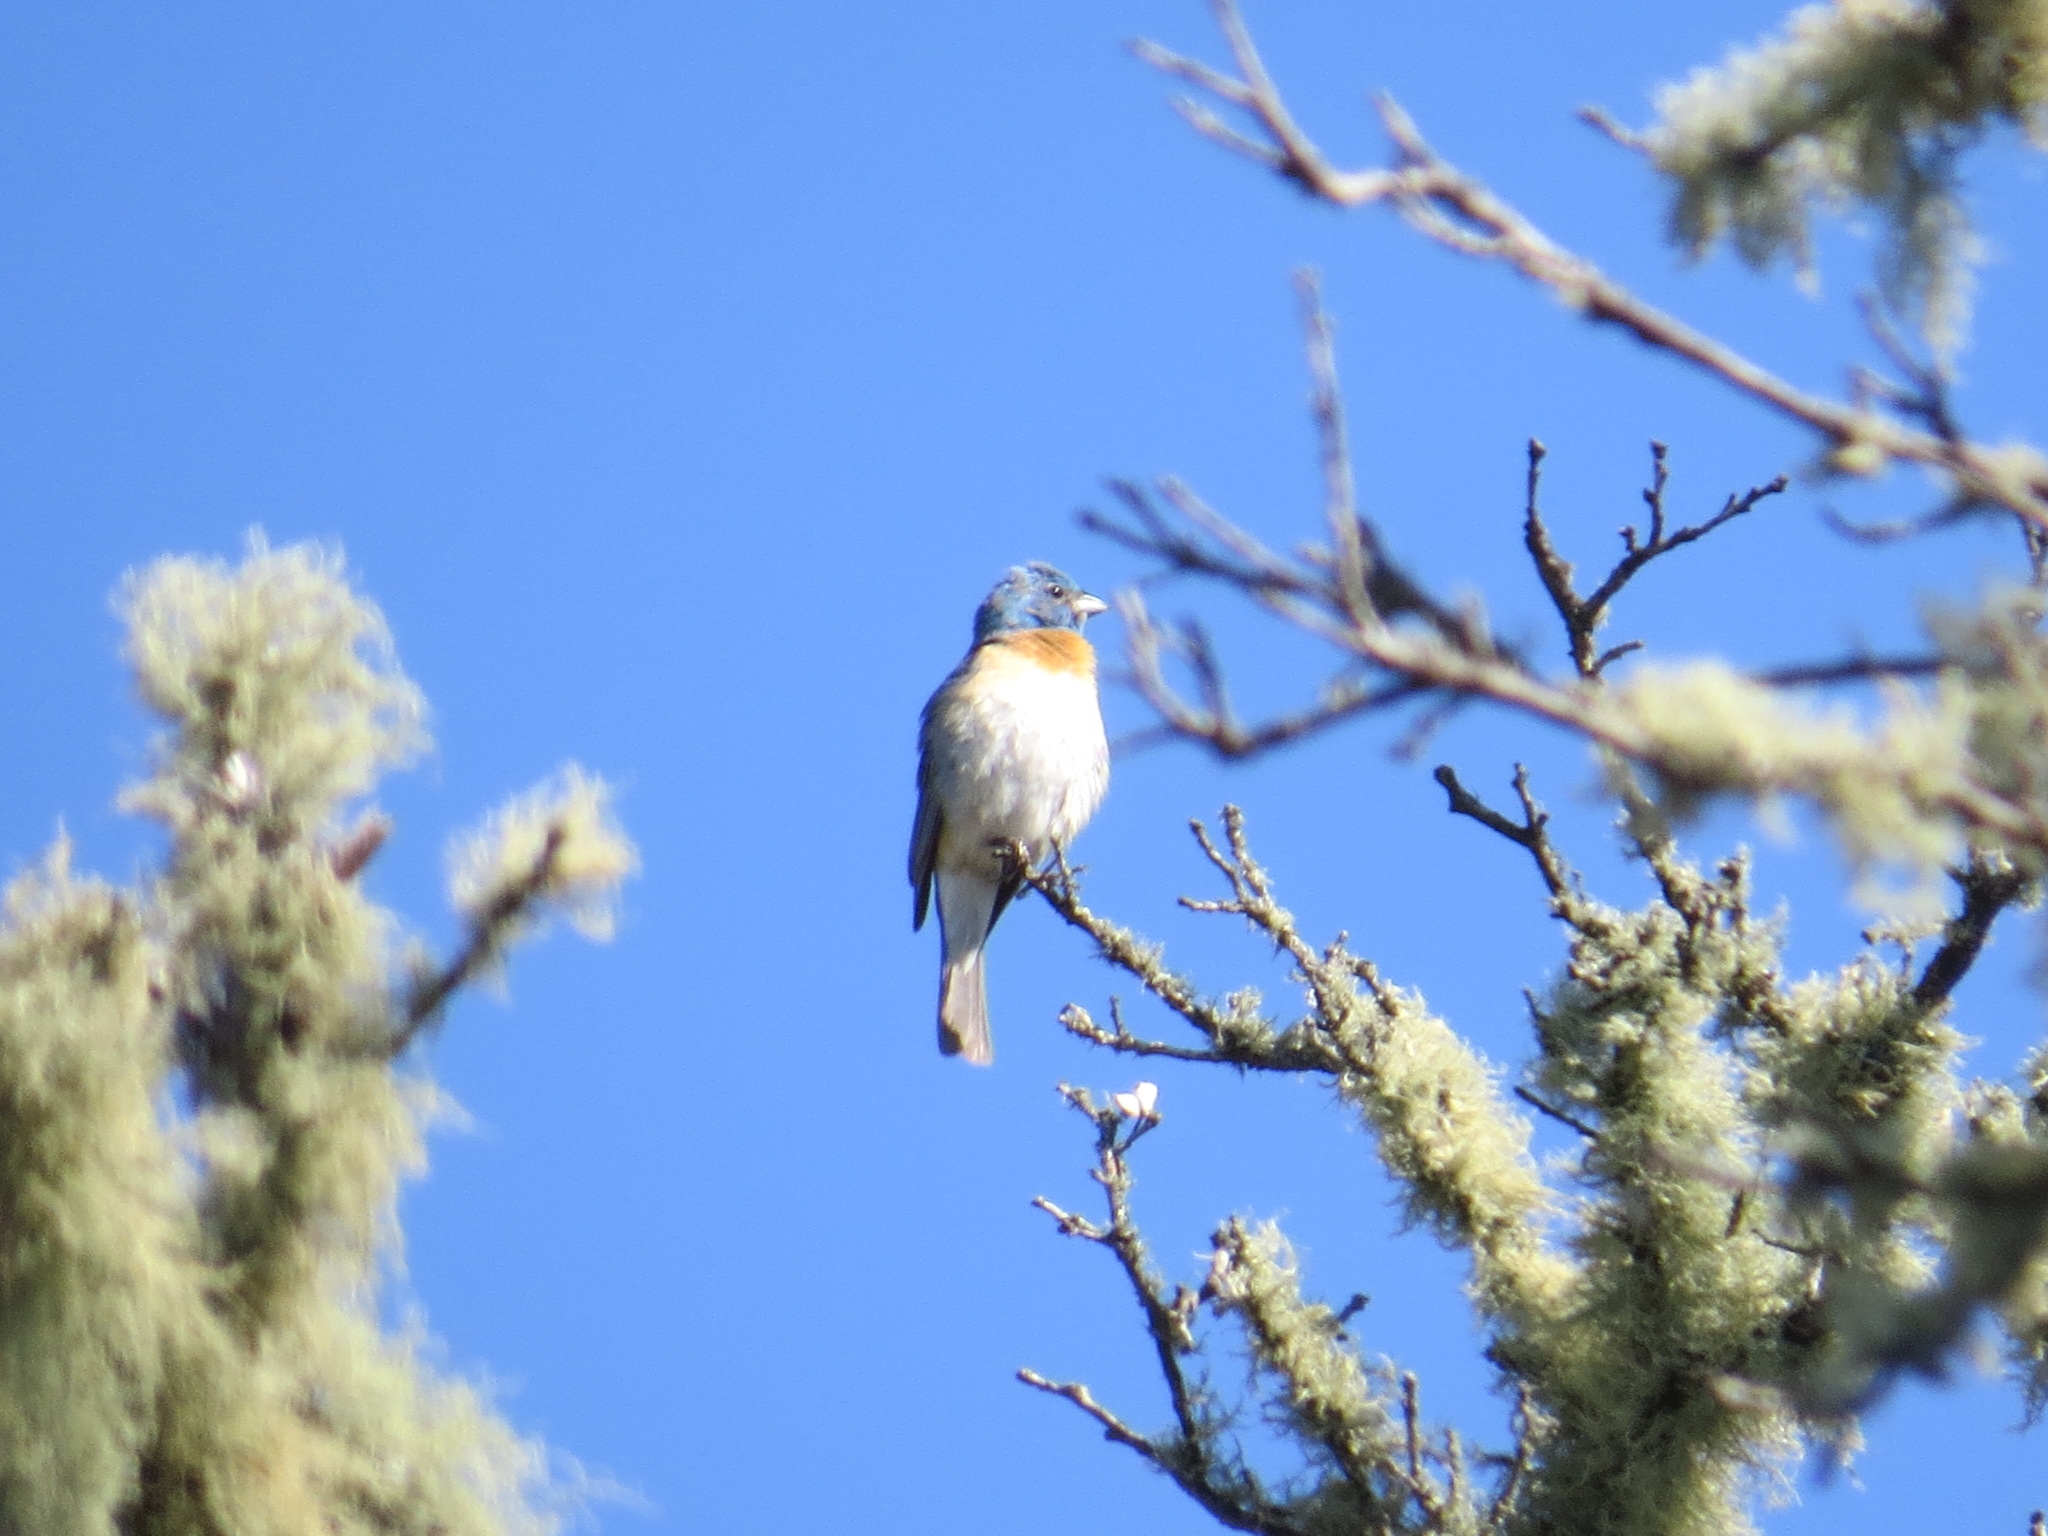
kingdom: Animalia
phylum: Chordata
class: Aves
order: Passeriformes
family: Cardinalidae
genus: Passerina
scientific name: Passerina amoena
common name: Lazuli bunting
